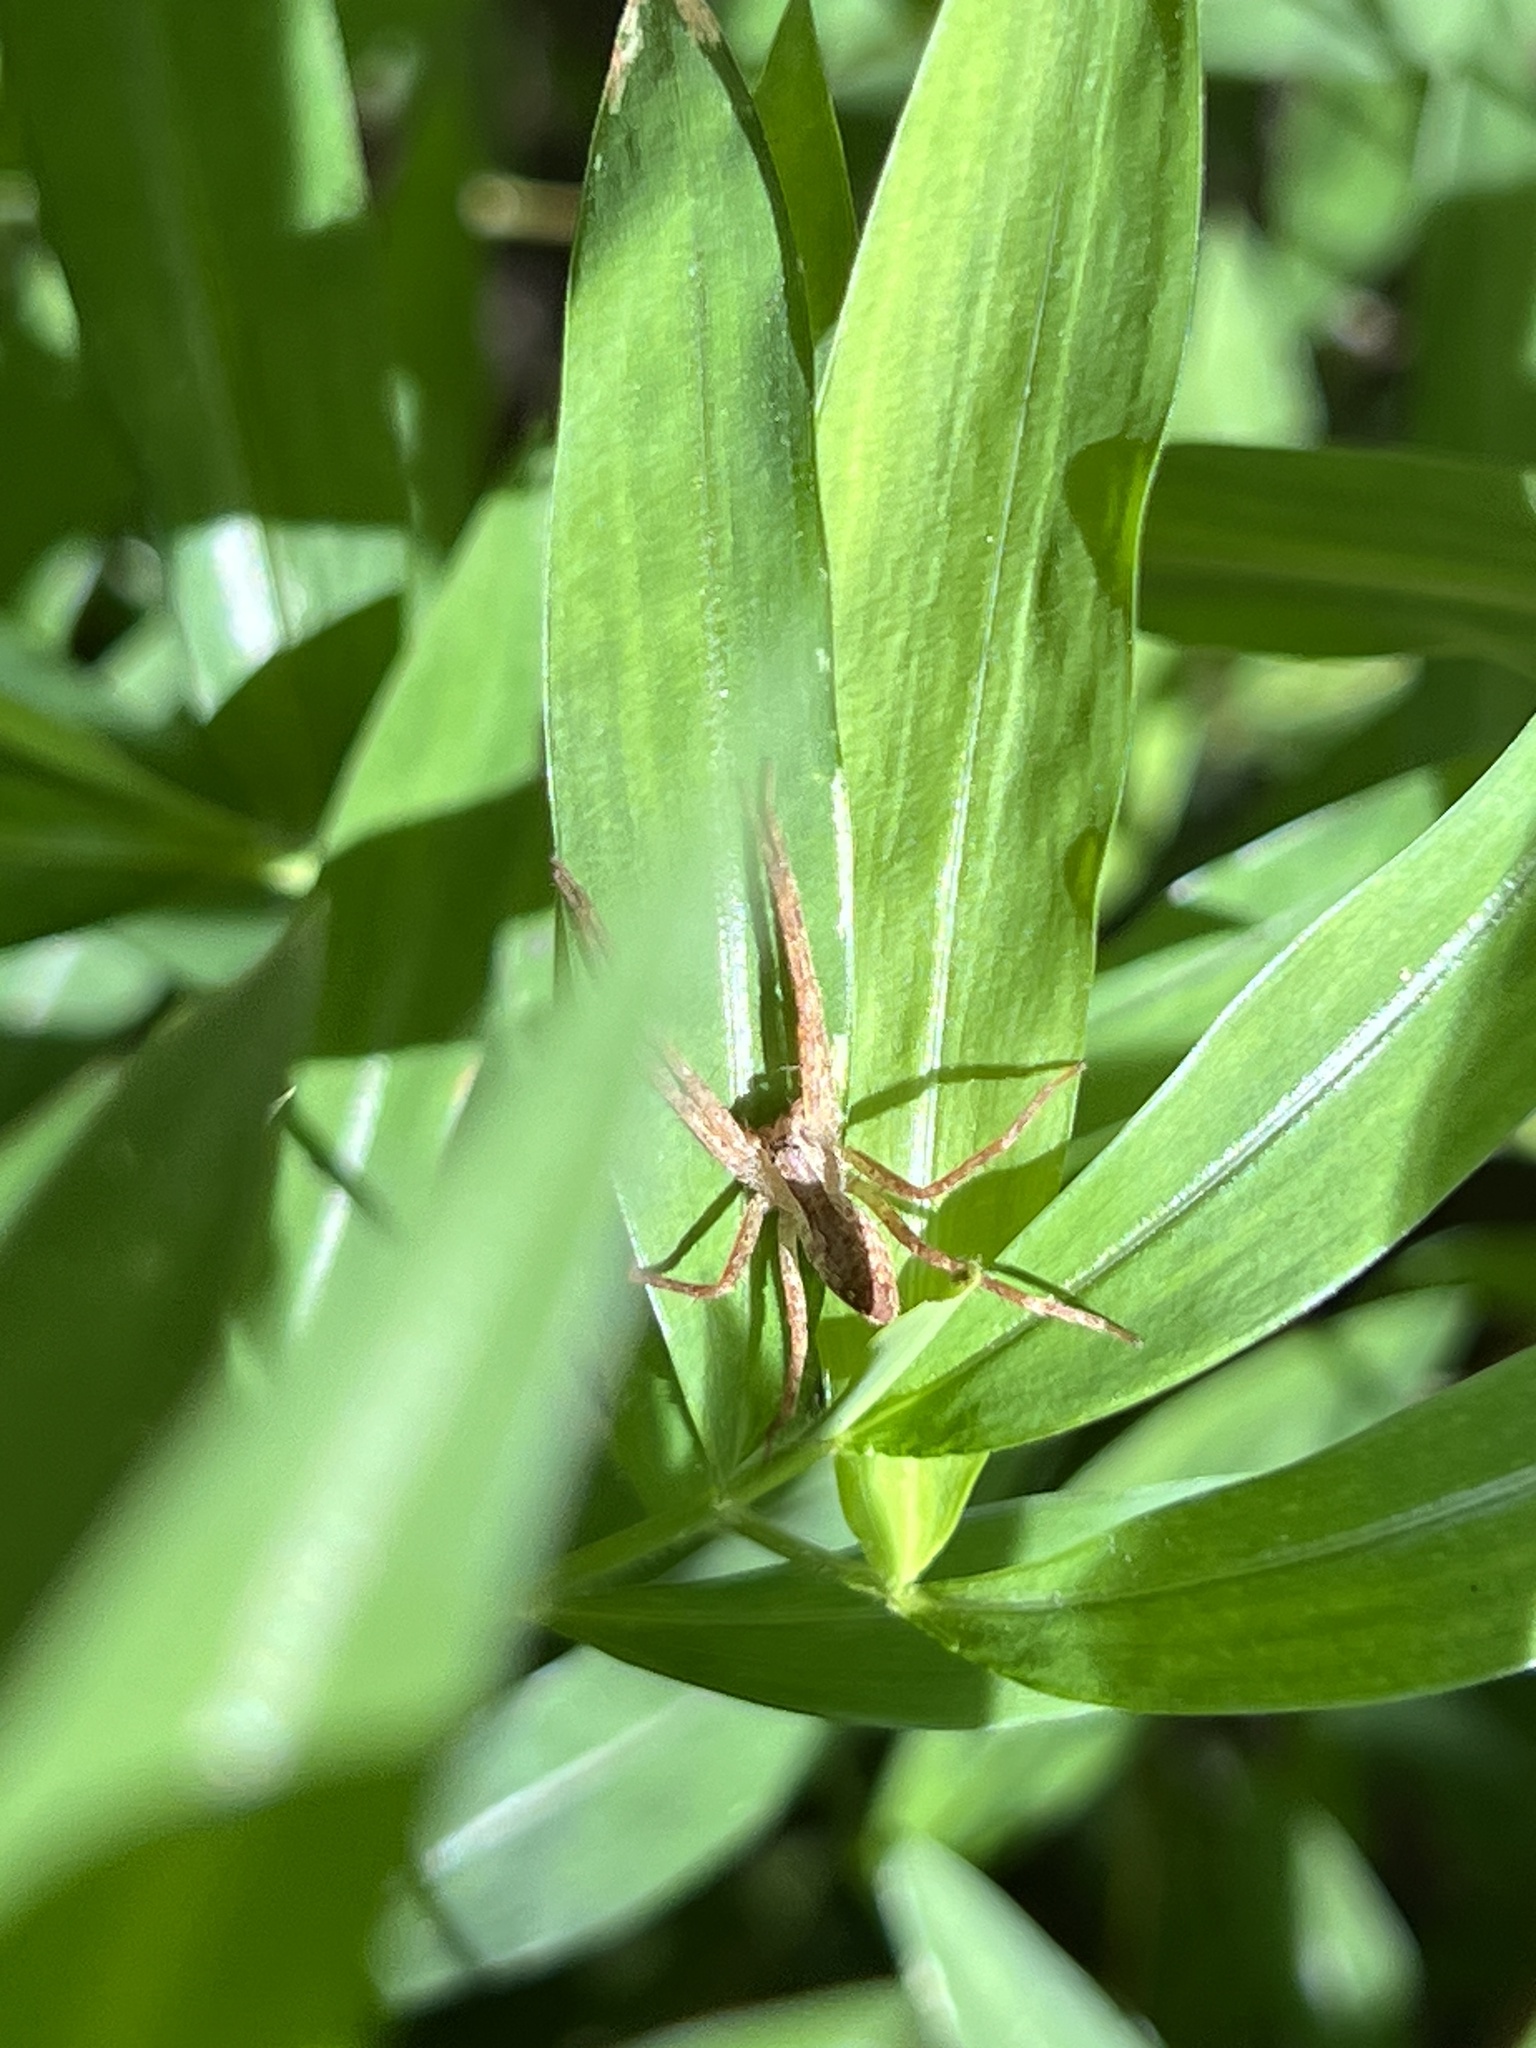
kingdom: Animalia
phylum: Arthropoda
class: Arachnida
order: Araneae
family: Pisauridae
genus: Pisaurina
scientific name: Pisaurina mira
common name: American nursery web spider
